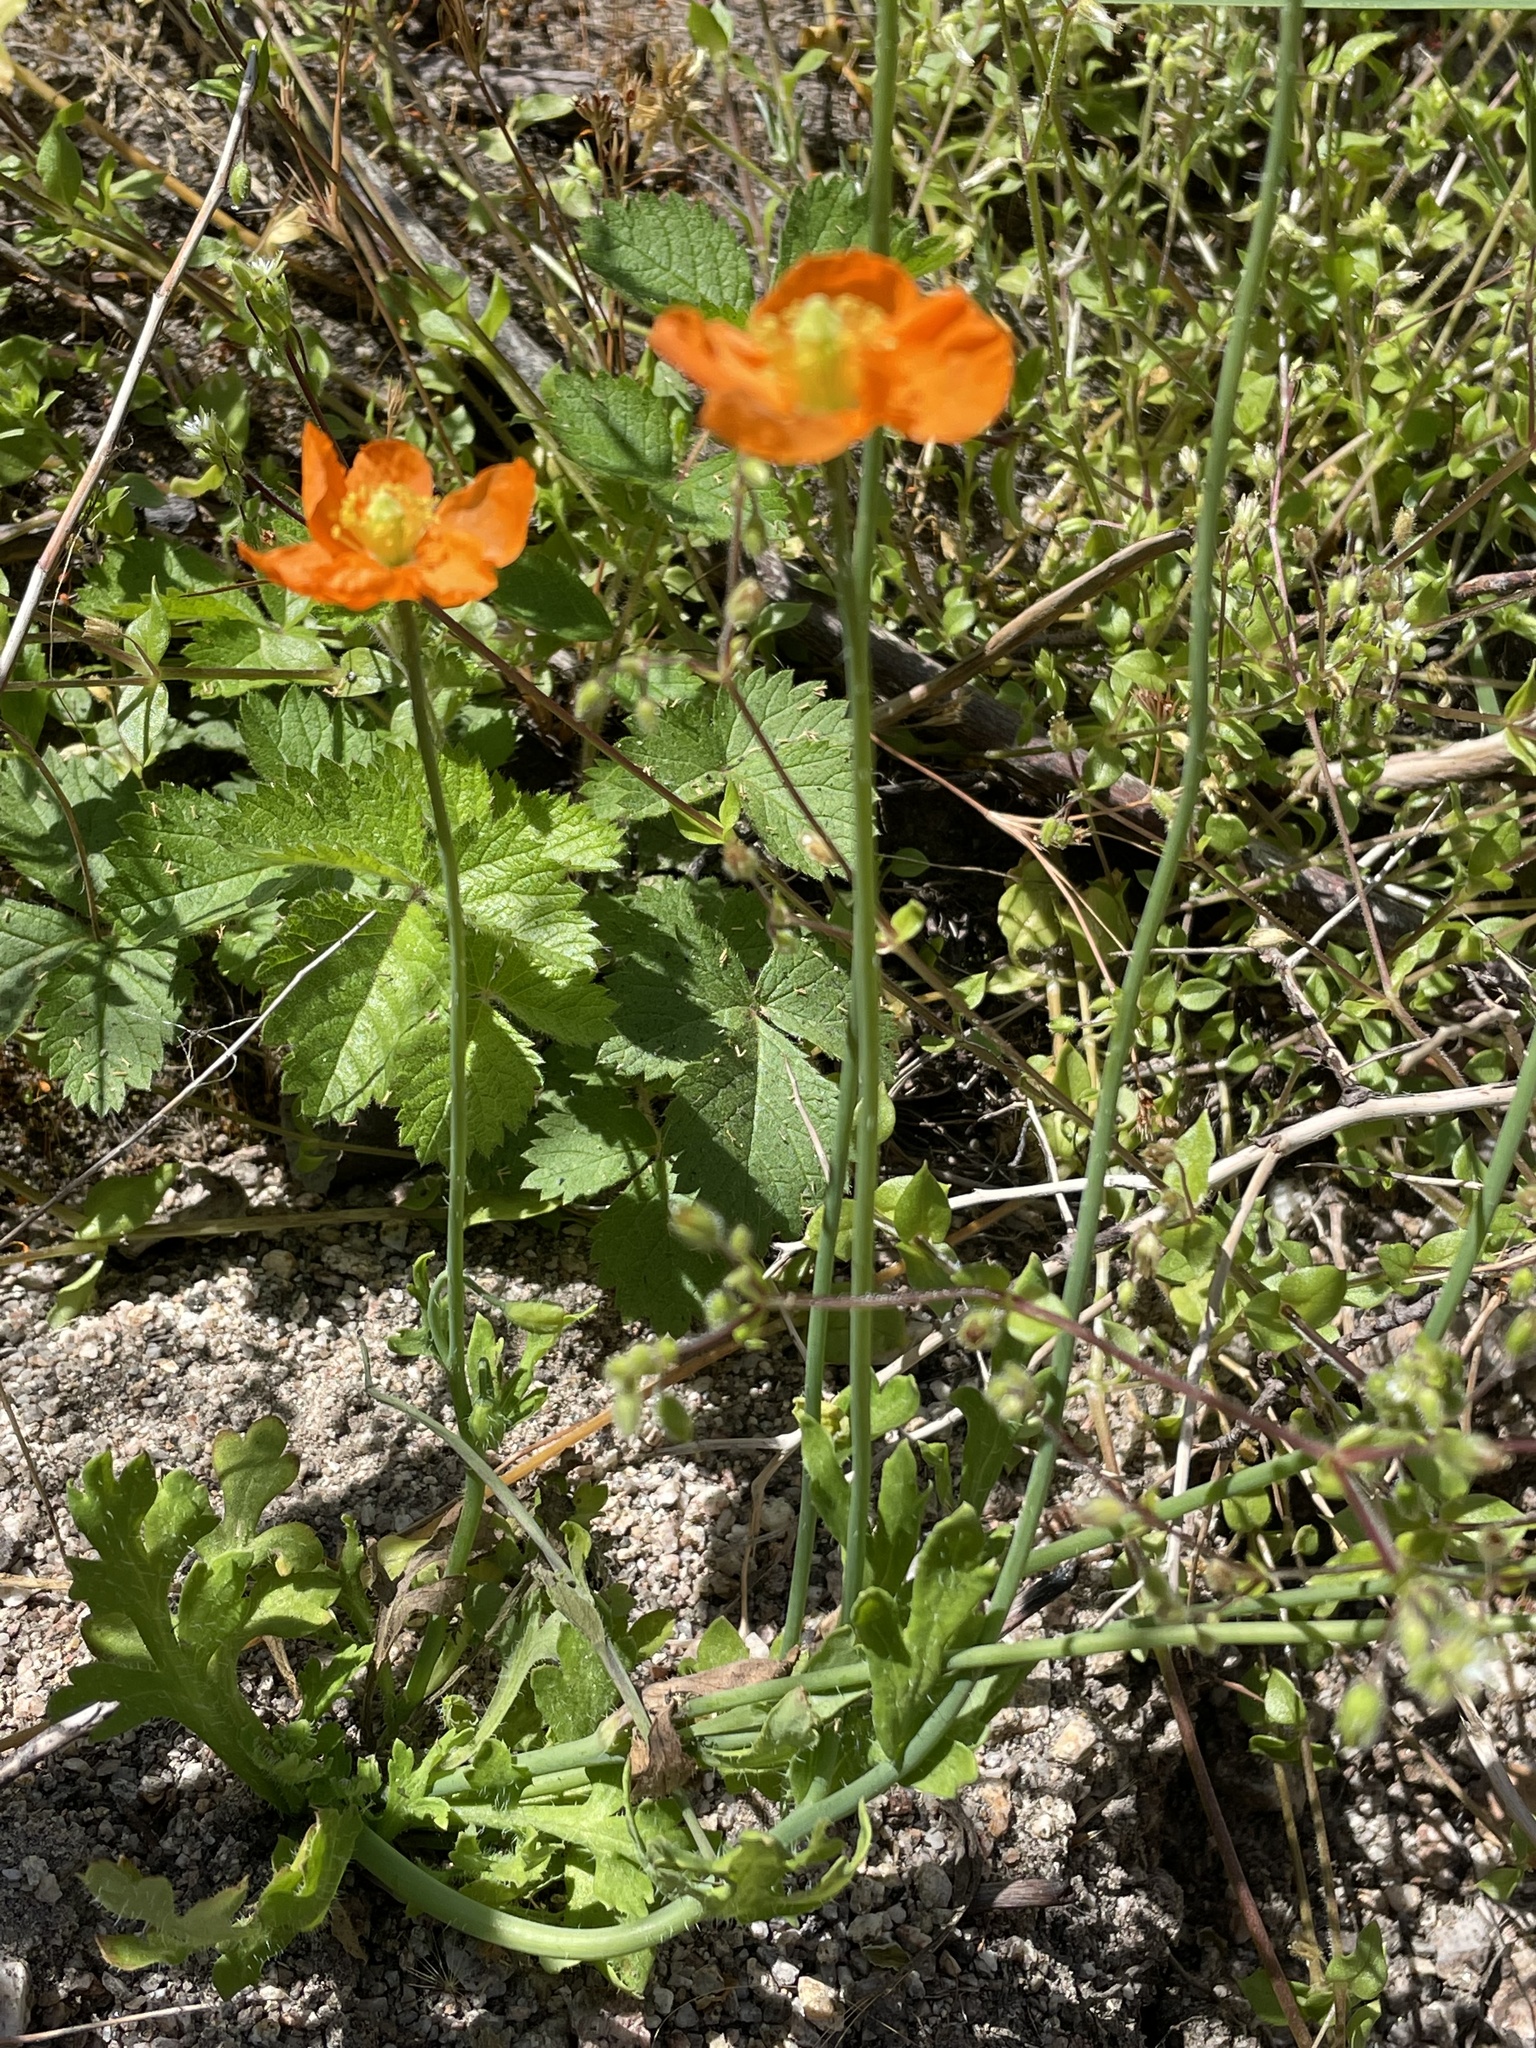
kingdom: Plantae
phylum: Tracheophyta
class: Magnoliopsida
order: Ranunculales
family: Papaveraceae
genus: Papaver
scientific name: Papaver californicum
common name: Fire poppy
